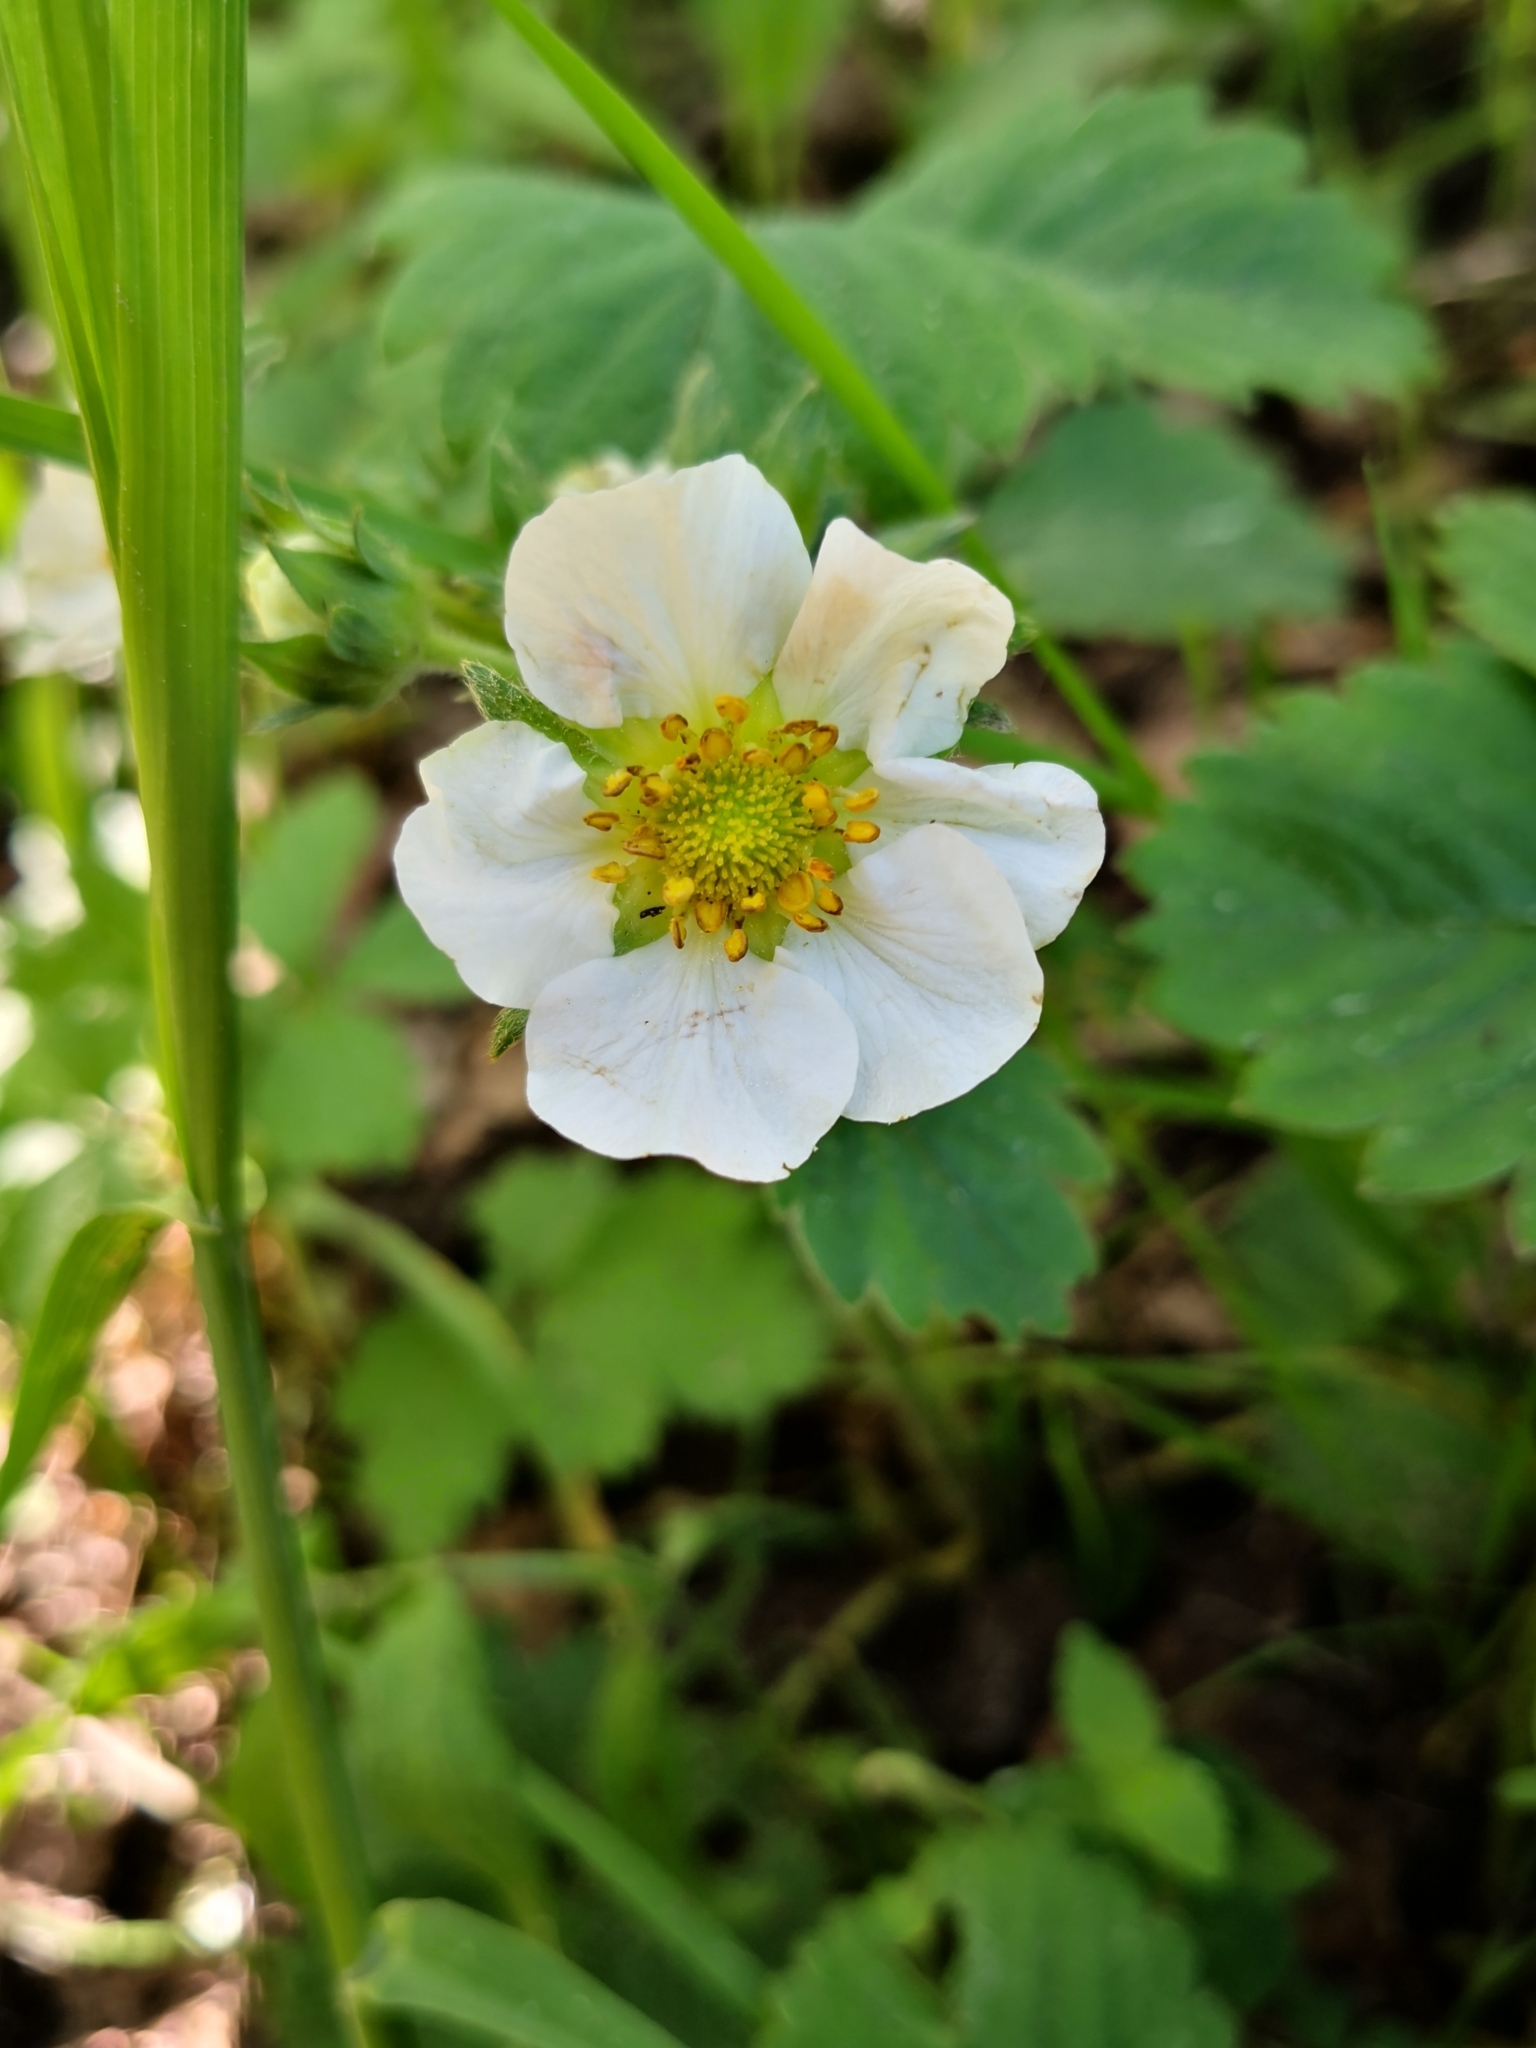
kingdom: Plantae
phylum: Tracheophyta
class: Magnoliopsida
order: Rosales
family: Rosaceae
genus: Fragaria
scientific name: Fragaria ananassa
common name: Garden strawberry
